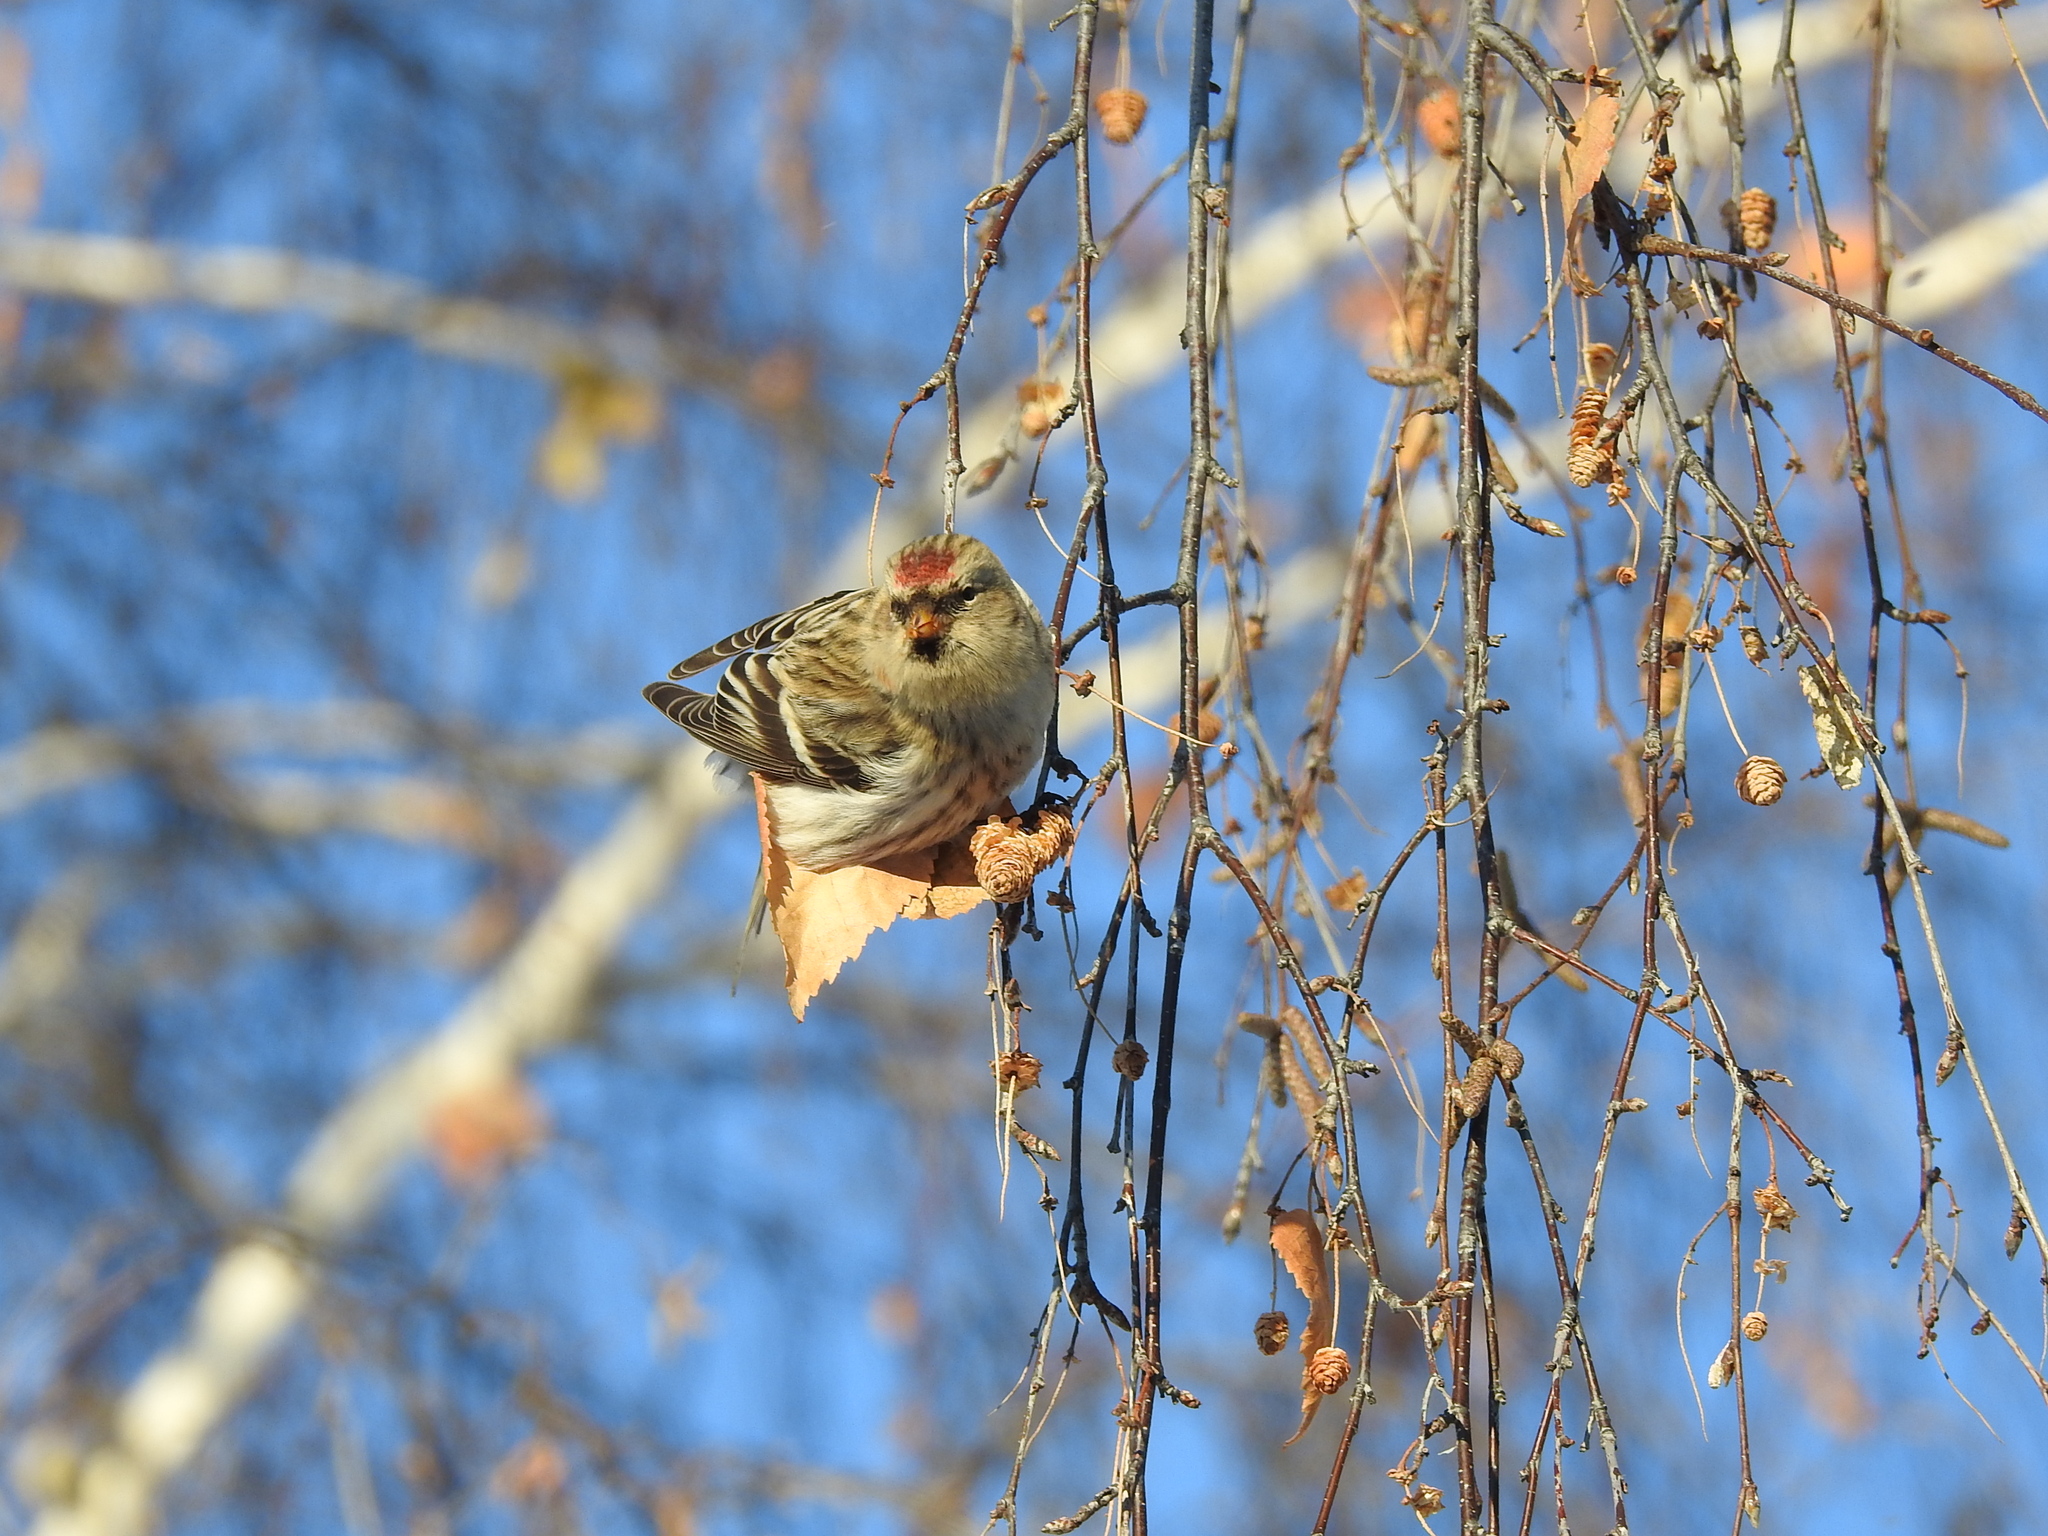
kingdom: Animalia
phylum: Chordata
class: Aves
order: Passeriformes
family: Fringillidae
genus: Acanthis
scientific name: Acanthis flammea
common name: Common redpoll
